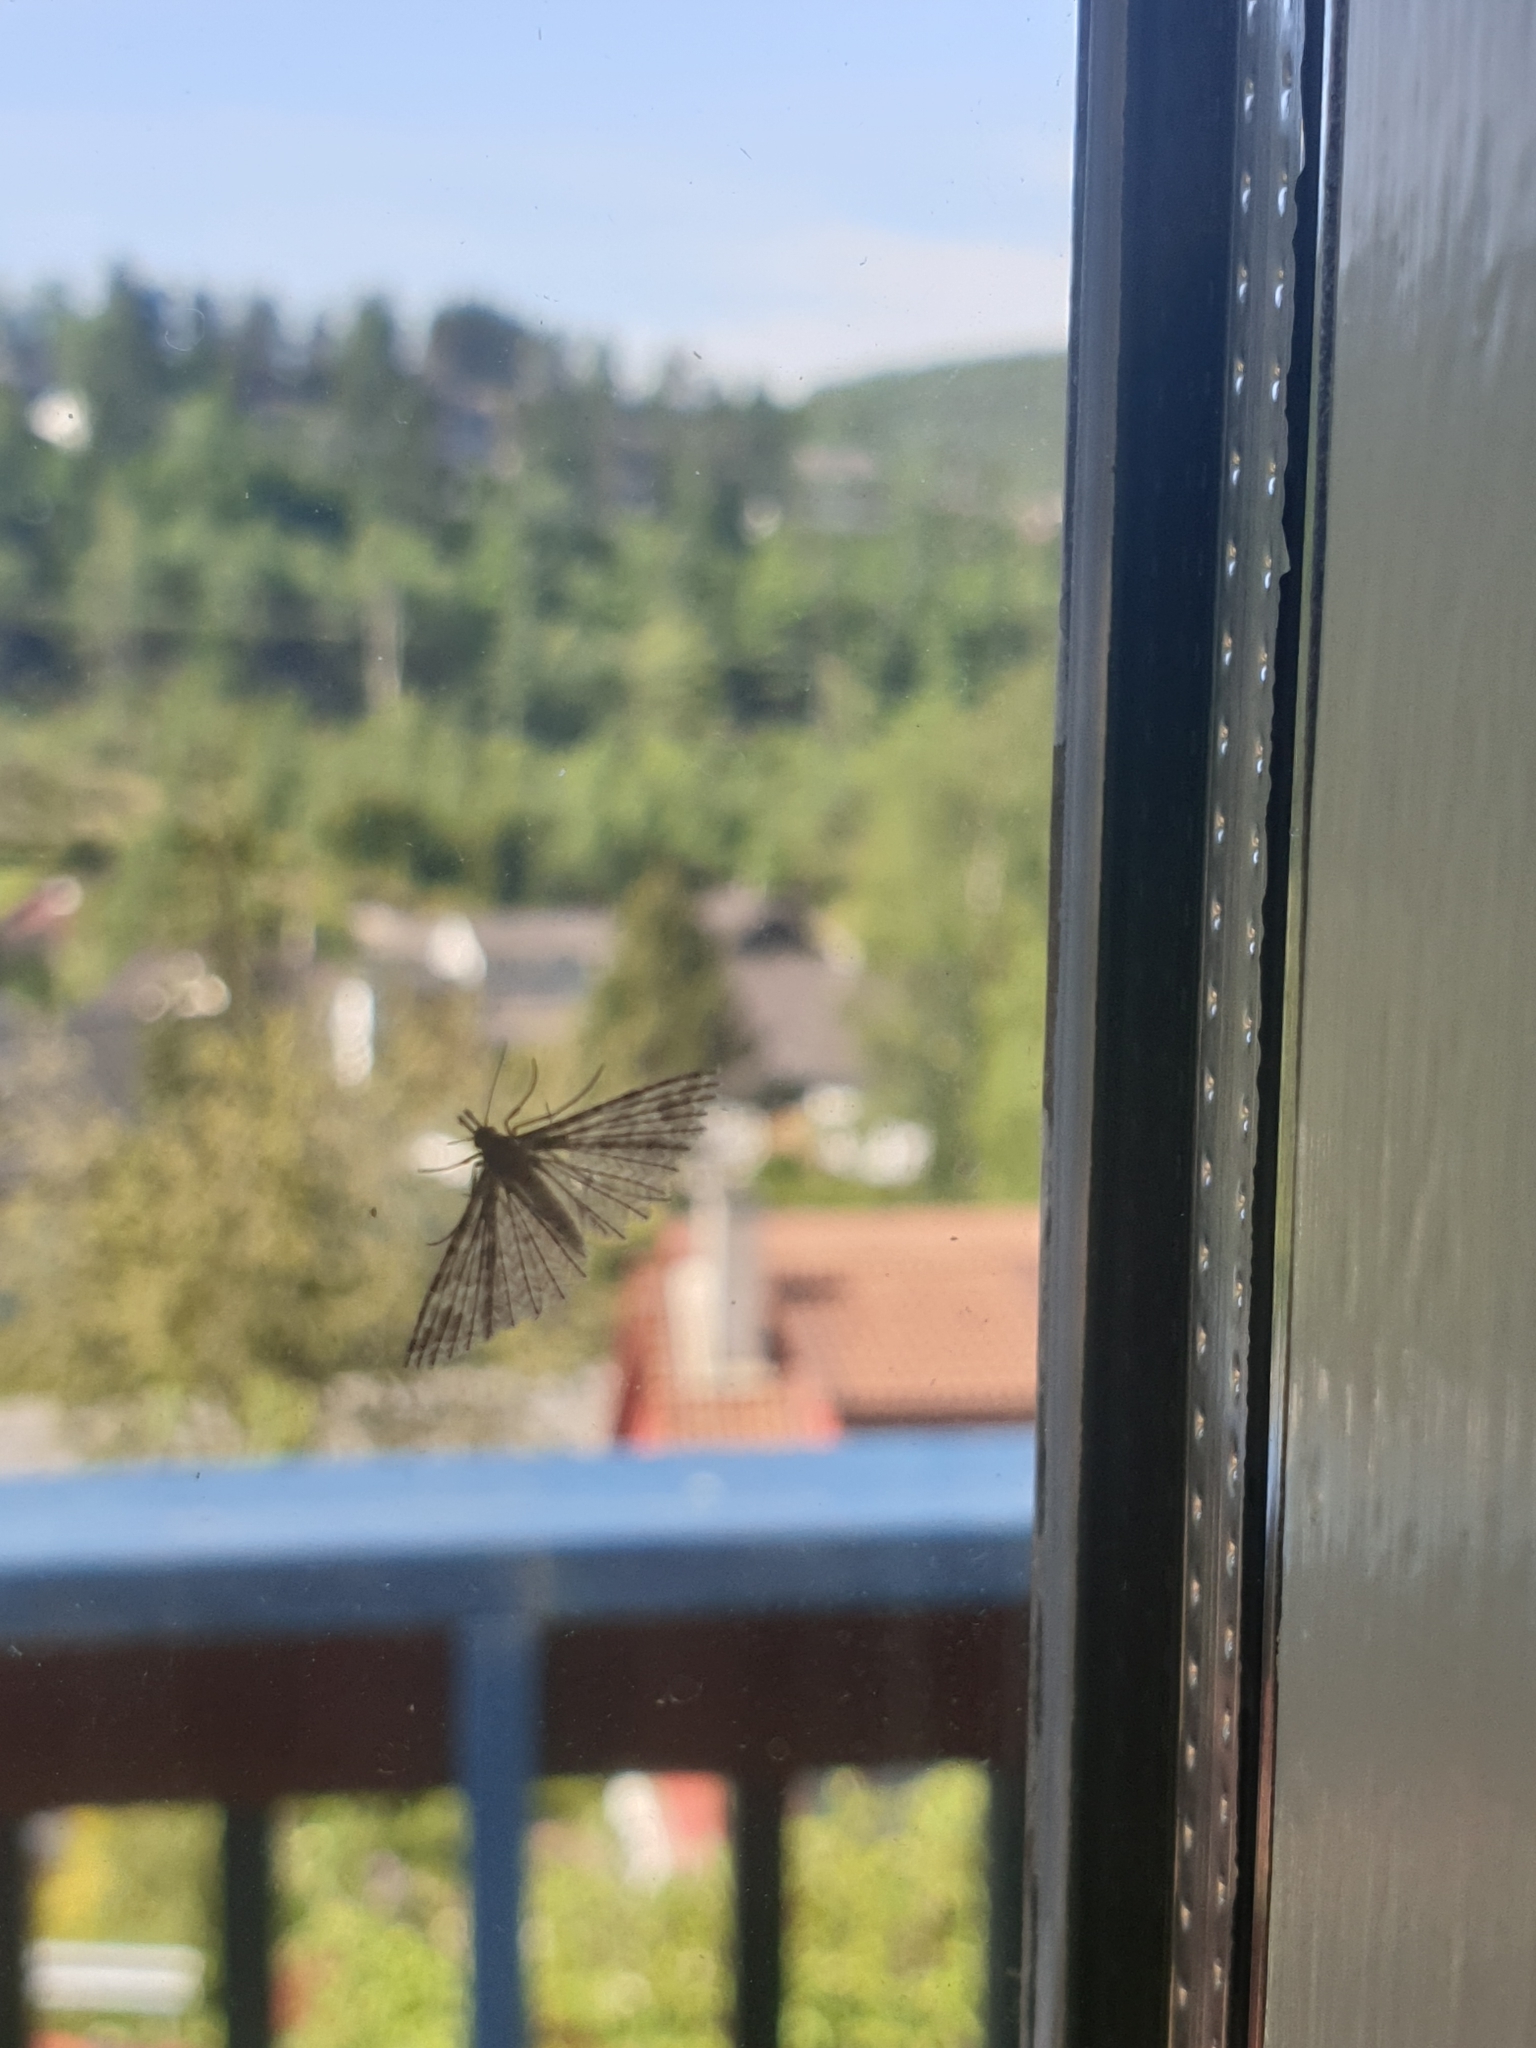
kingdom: Animalia
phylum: Arthropoda
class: Insecta
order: Lepidoptera
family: Alucitidae
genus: Alucita
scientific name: Alucita hexadactyla
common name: Twenty-plume moth
